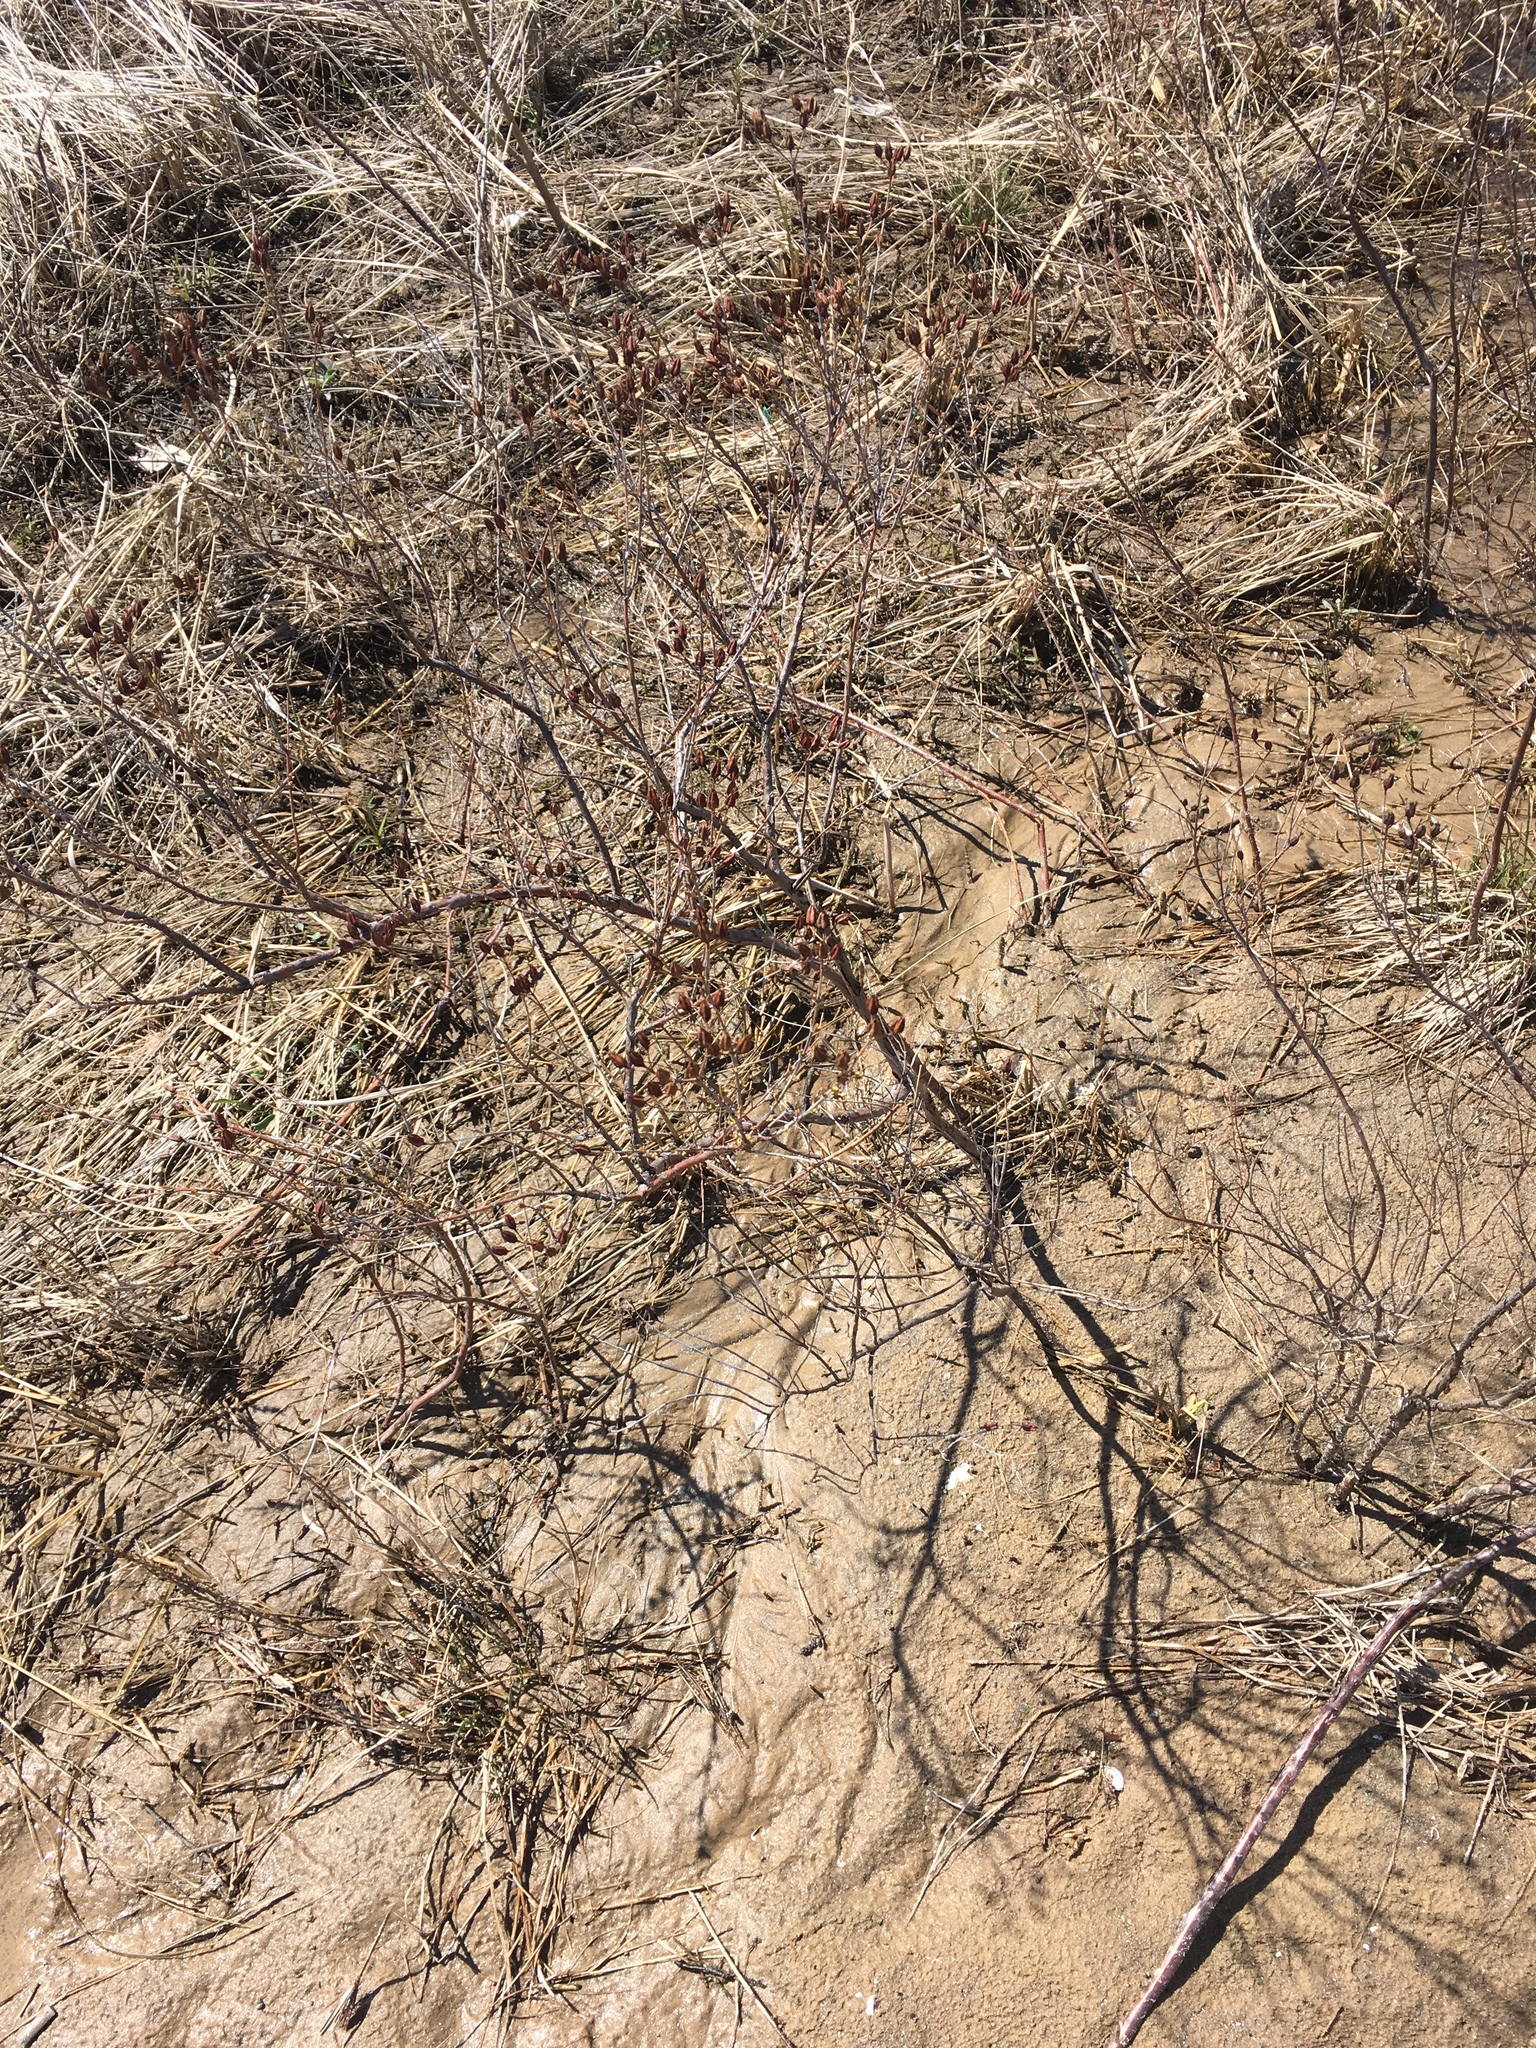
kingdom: Plantae
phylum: Tracheophyta
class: Magnoliopsida
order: Malpighiales
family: Hypericaceae
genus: Hypericum
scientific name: Hypericum kalmianum
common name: Kalm's st. john's-wort
